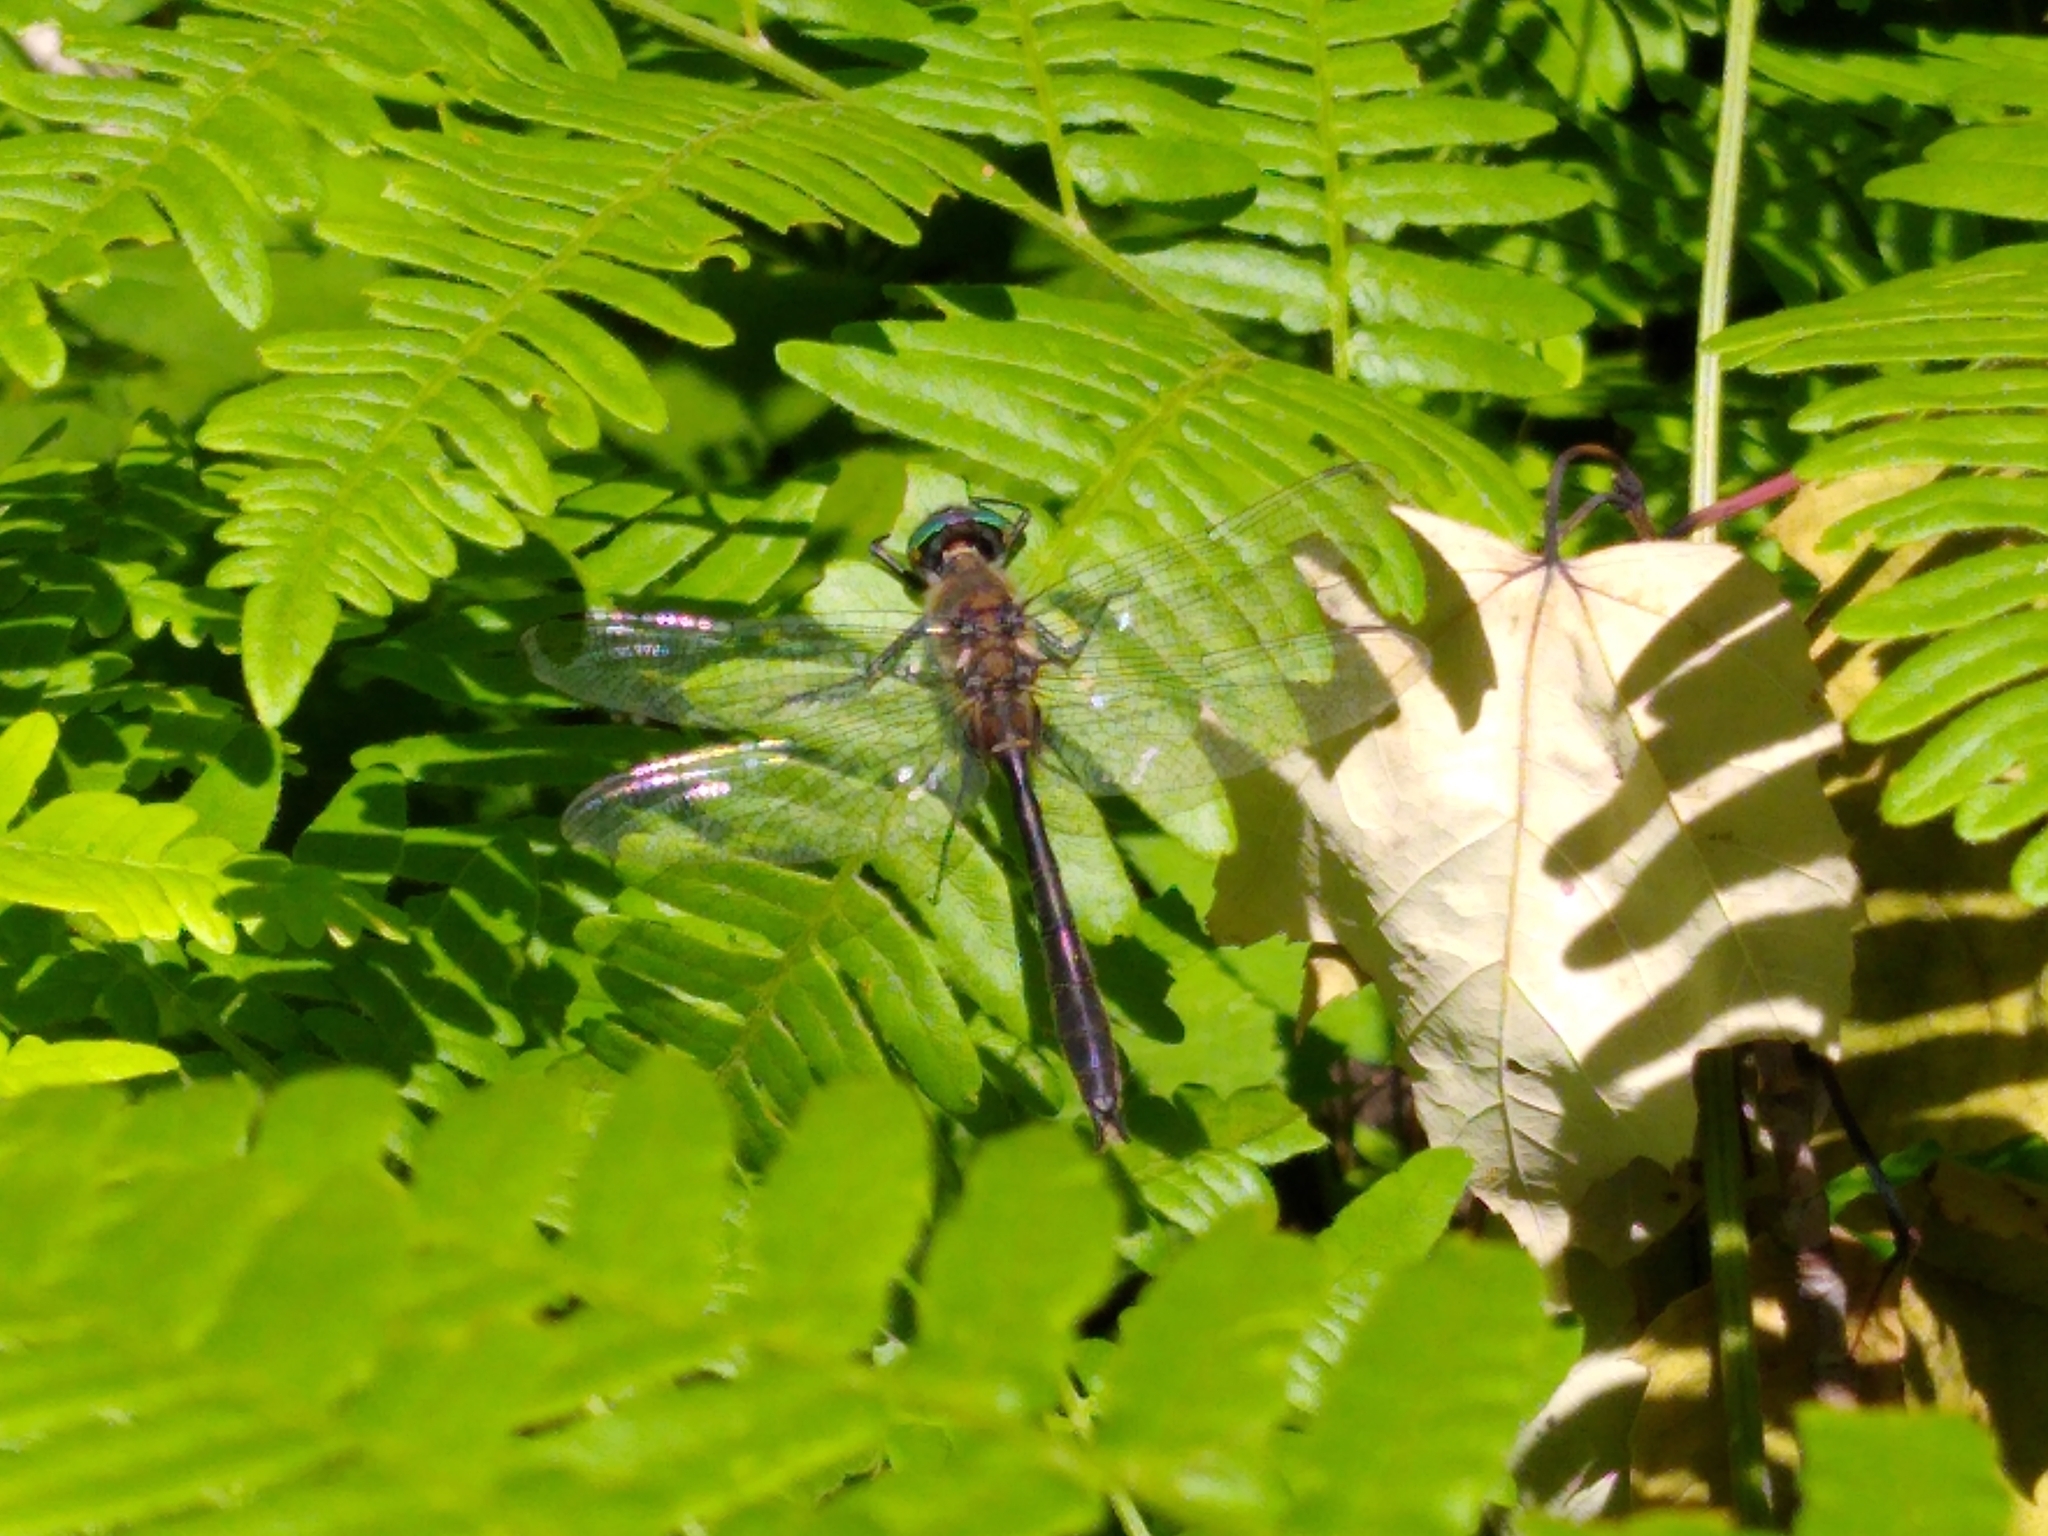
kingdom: Animalia
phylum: Arthropoda
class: Insecta
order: Odonata
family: Corduliidae
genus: Cordulia
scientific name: Cordulia shurtleffii
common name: American emerald
